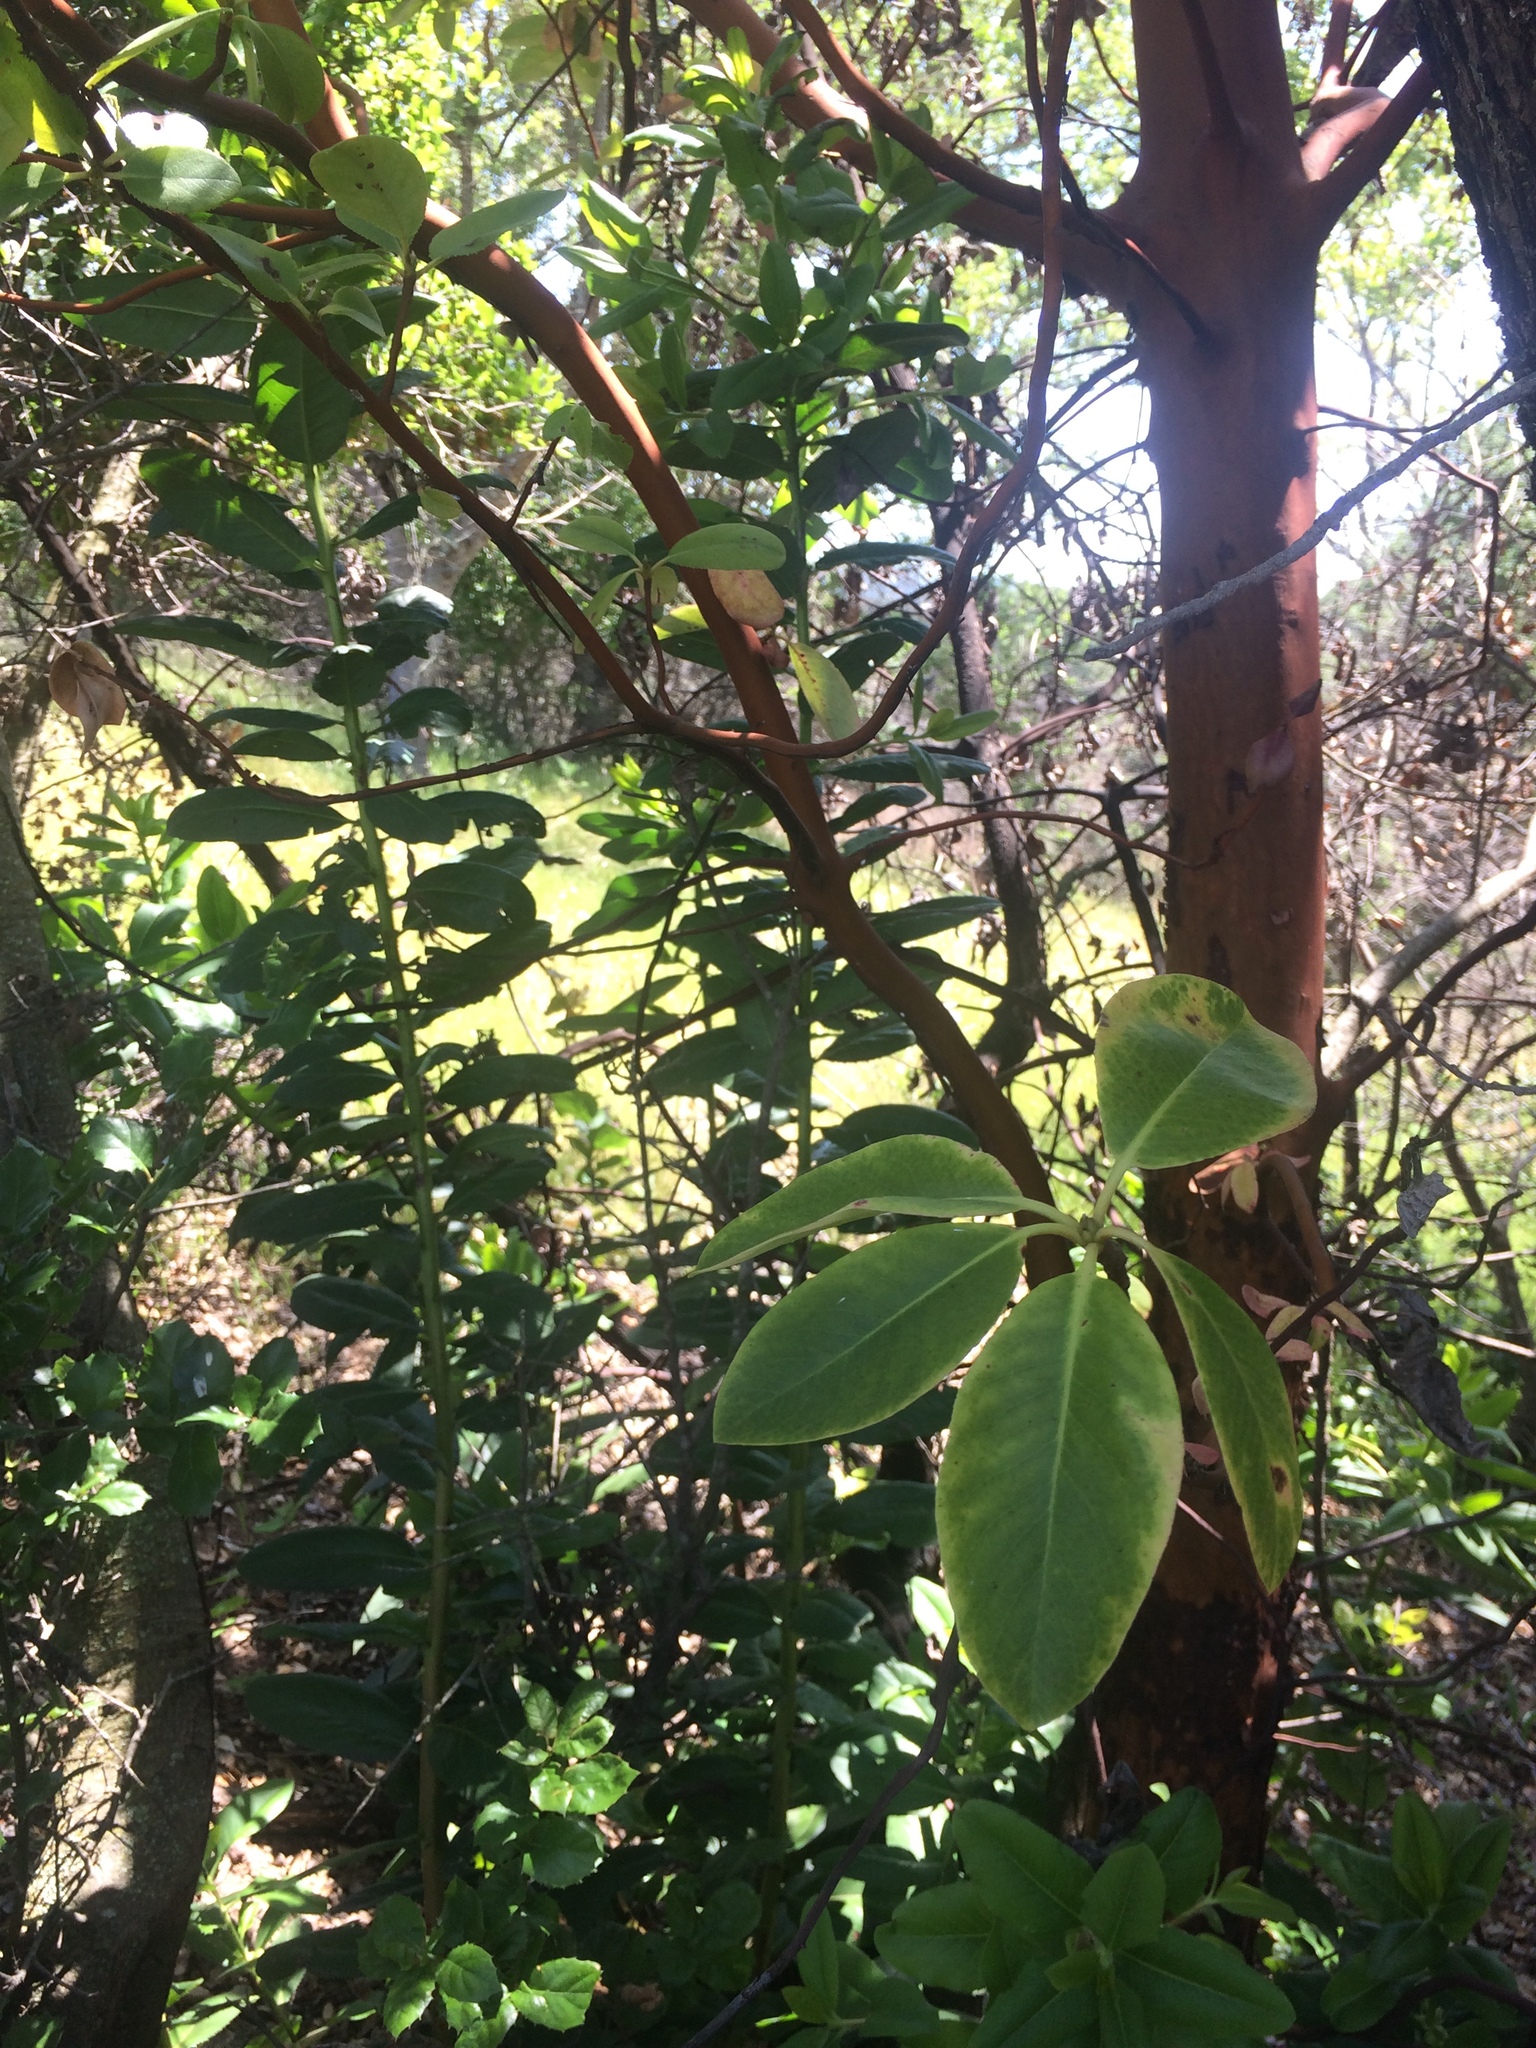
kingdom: Plantae
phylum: Tracheophyta
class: Magnoliopsida
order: Ericales
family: Ericaceae
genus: Arbutus
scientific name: Arbutus menziesii
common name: Pacific madrone
